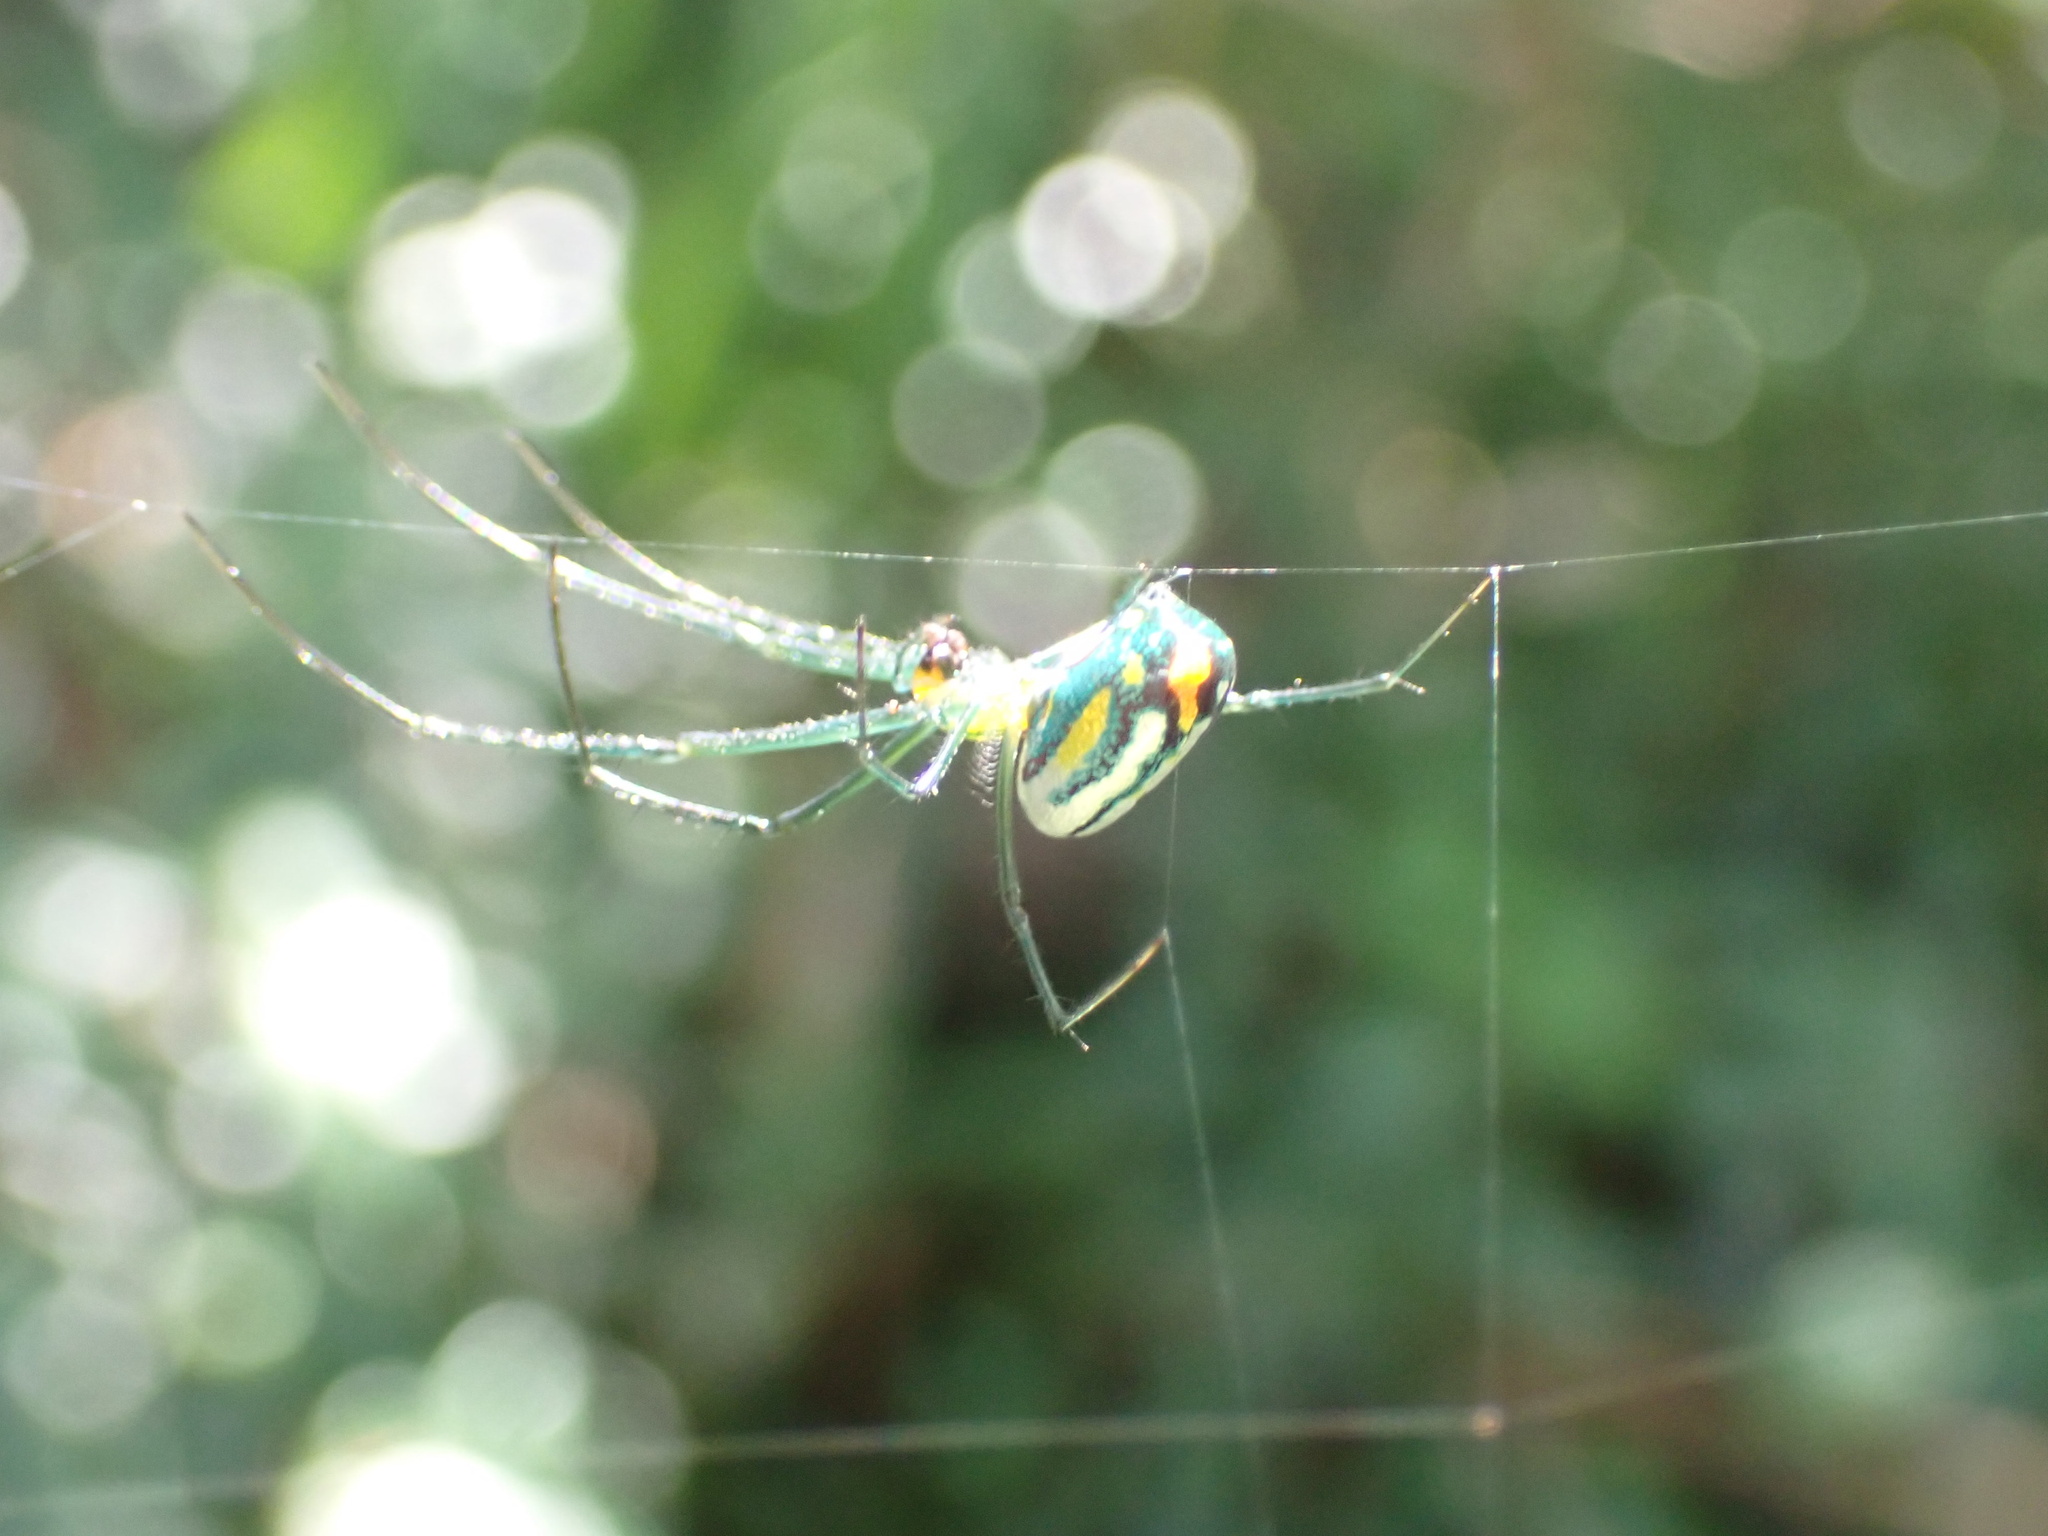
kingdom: Animalia
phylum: Arthropoda
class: Arachnida
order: Araneae
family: Tetragnathidae
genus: Leucauge
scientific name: Leucauge argyrobapta
